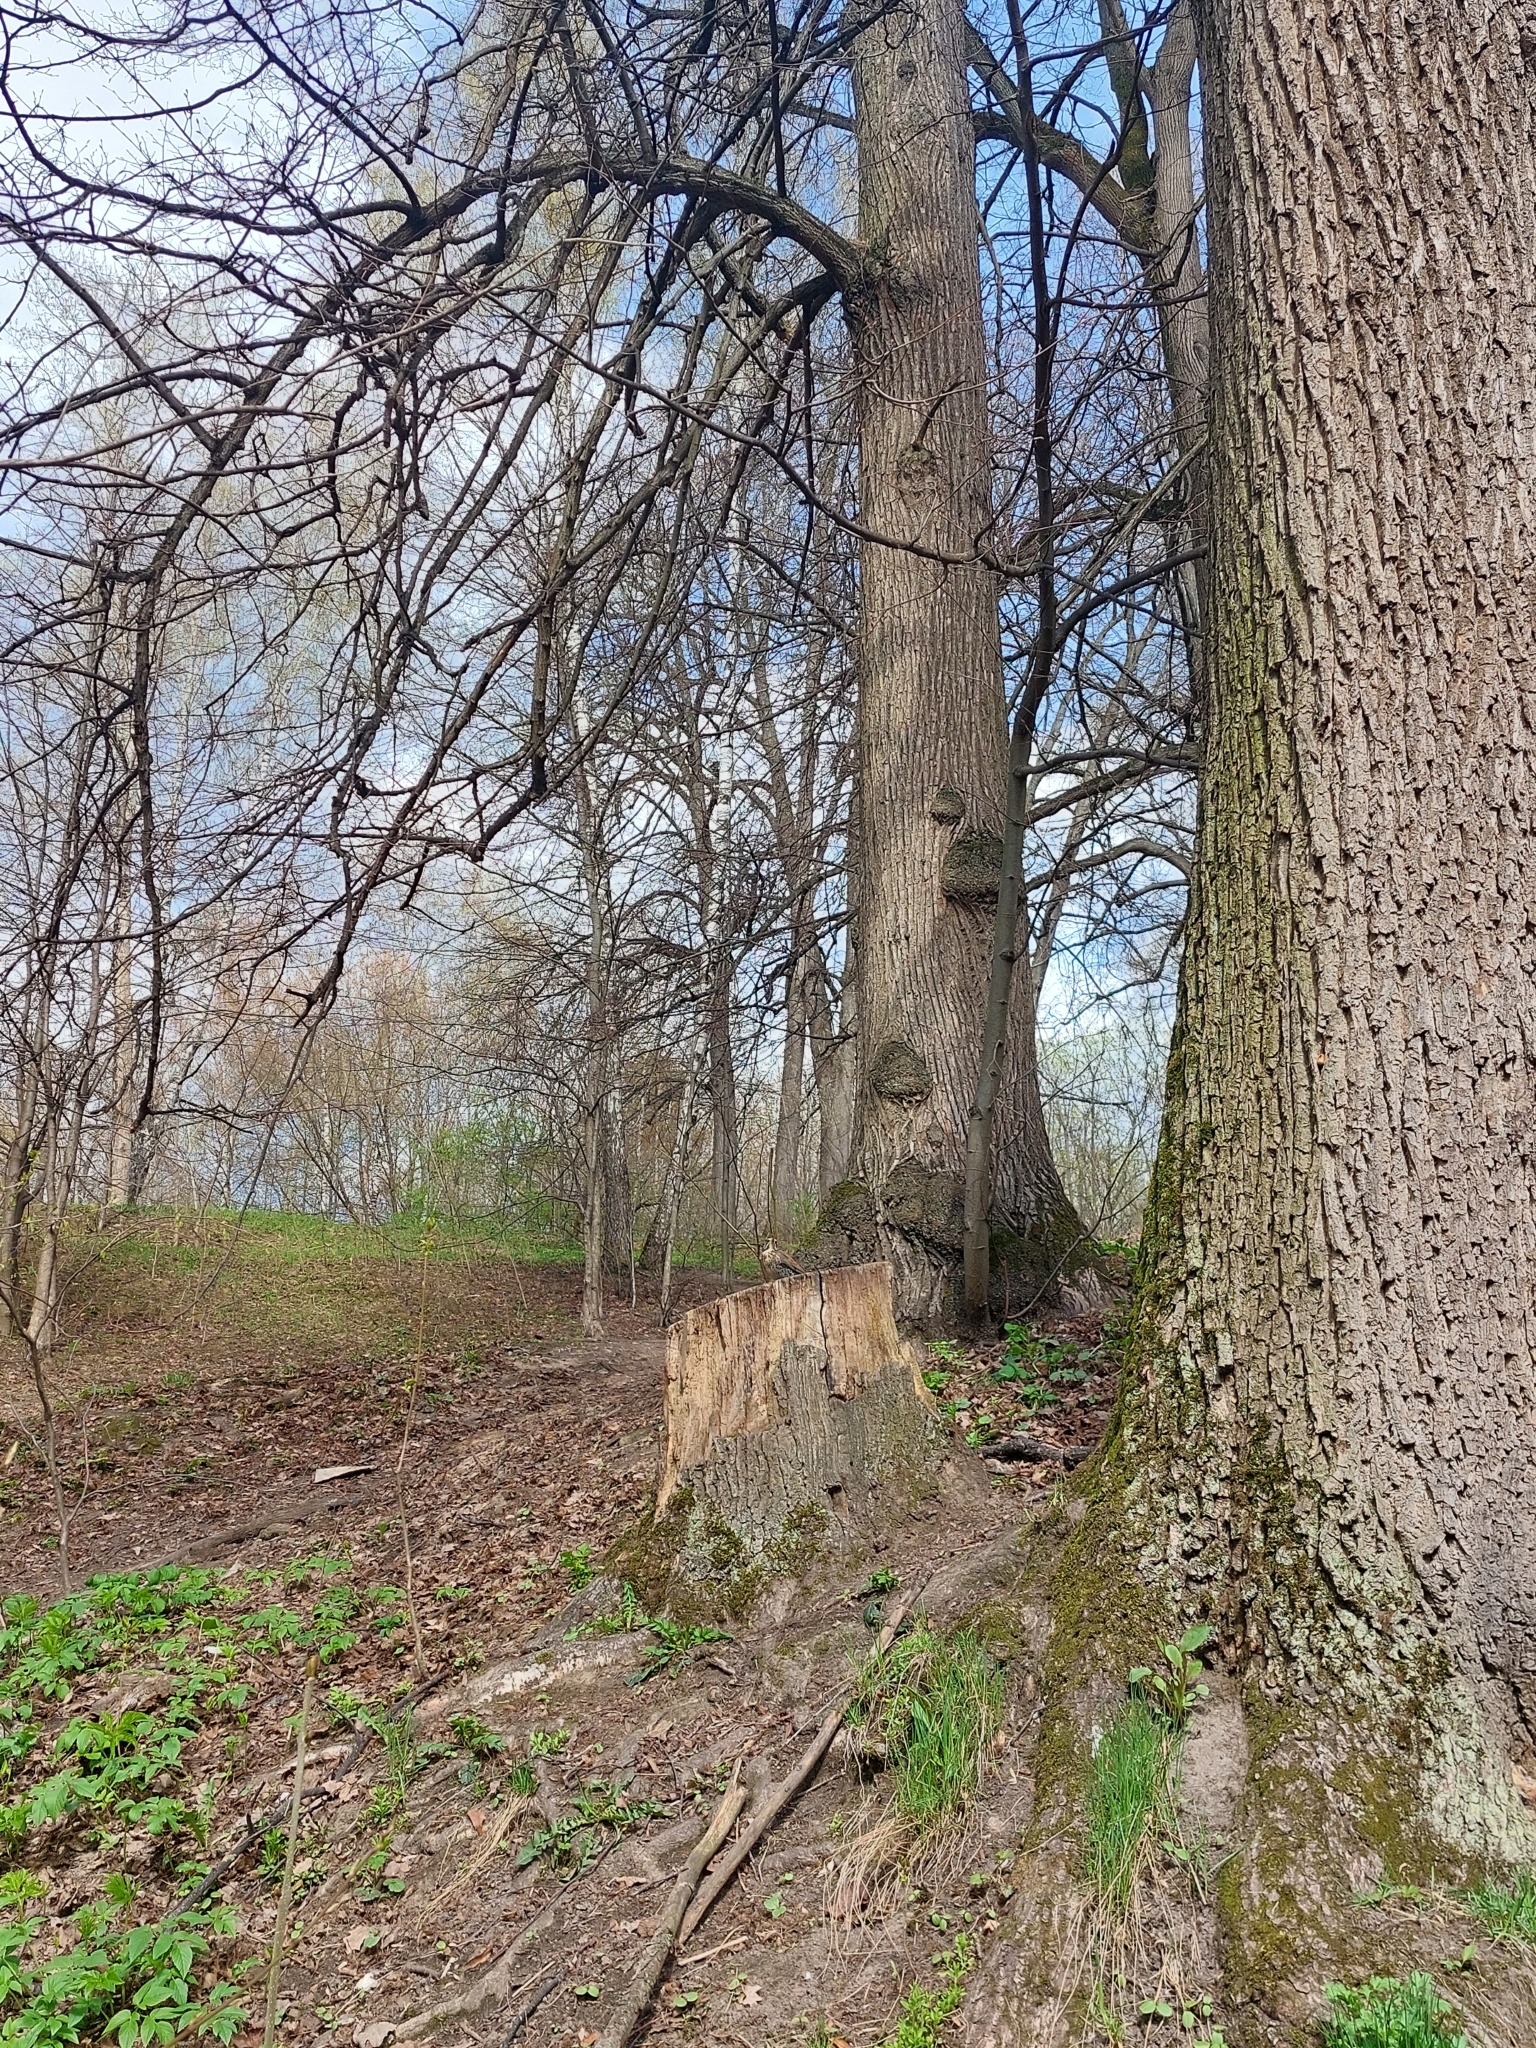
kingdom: Animalia
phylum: Chordata
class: Aves
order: Passeriformes
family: Turdidae
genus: Turdus
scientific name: Turdus pilaris
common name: Fieldfare
